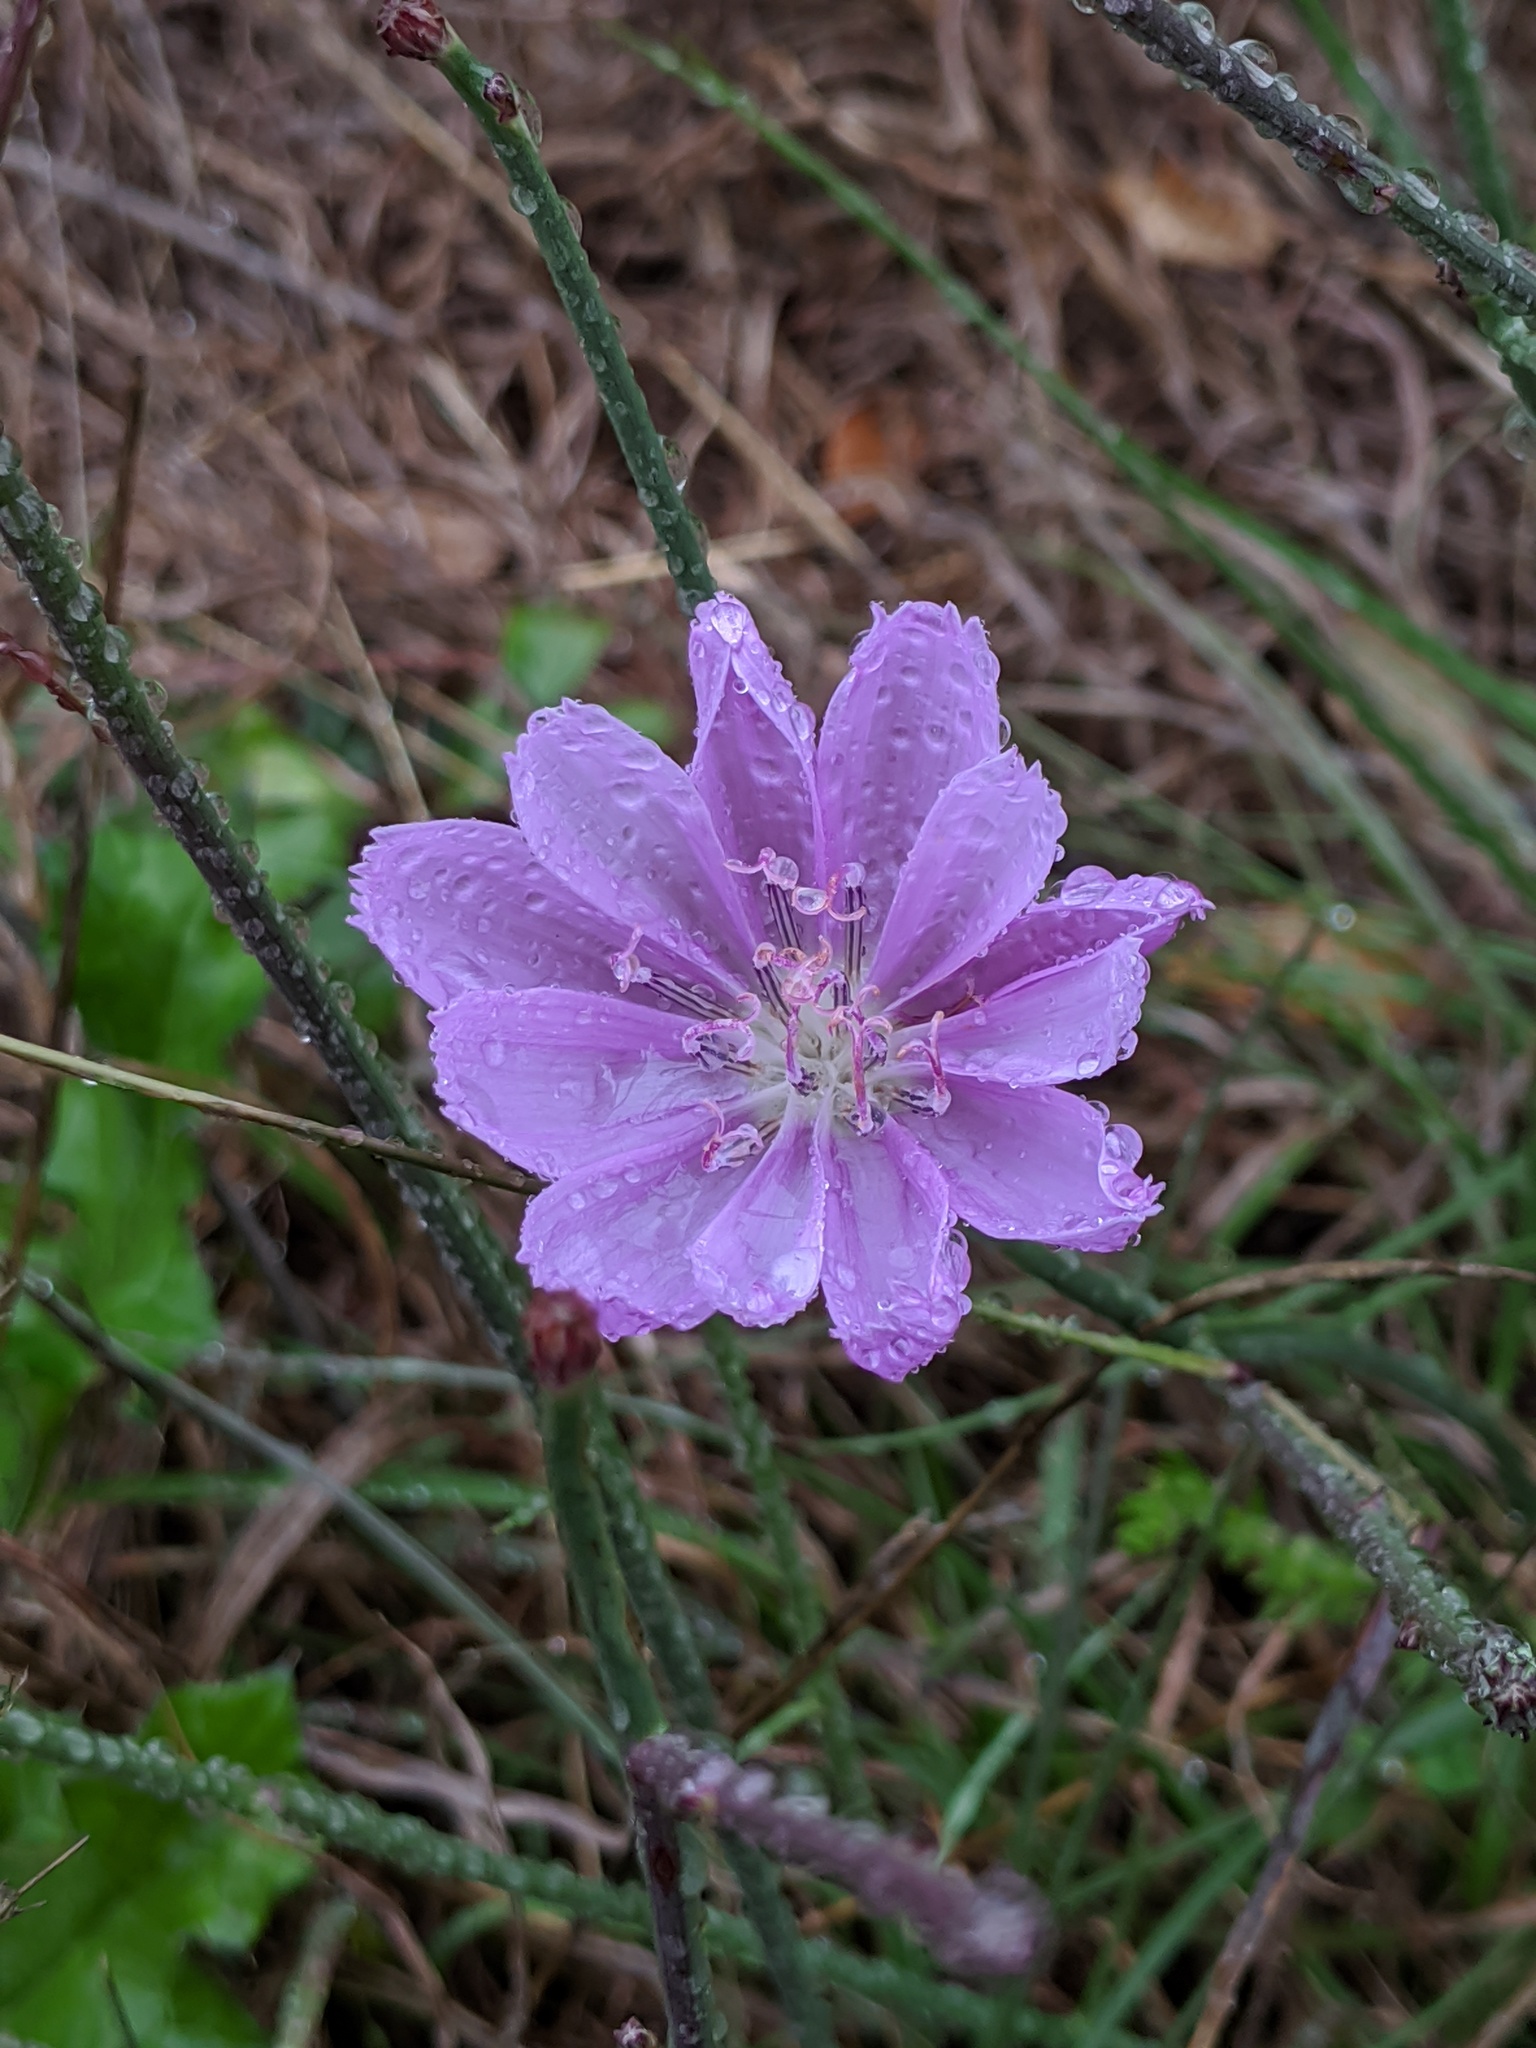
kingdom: Plantae
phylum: Tracheophyta
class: Magnoliopsida
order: Asterales
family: Asteraceae
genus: Lygodesmia
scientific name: Lygodesmia texana
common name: Texas skeleton-plant
